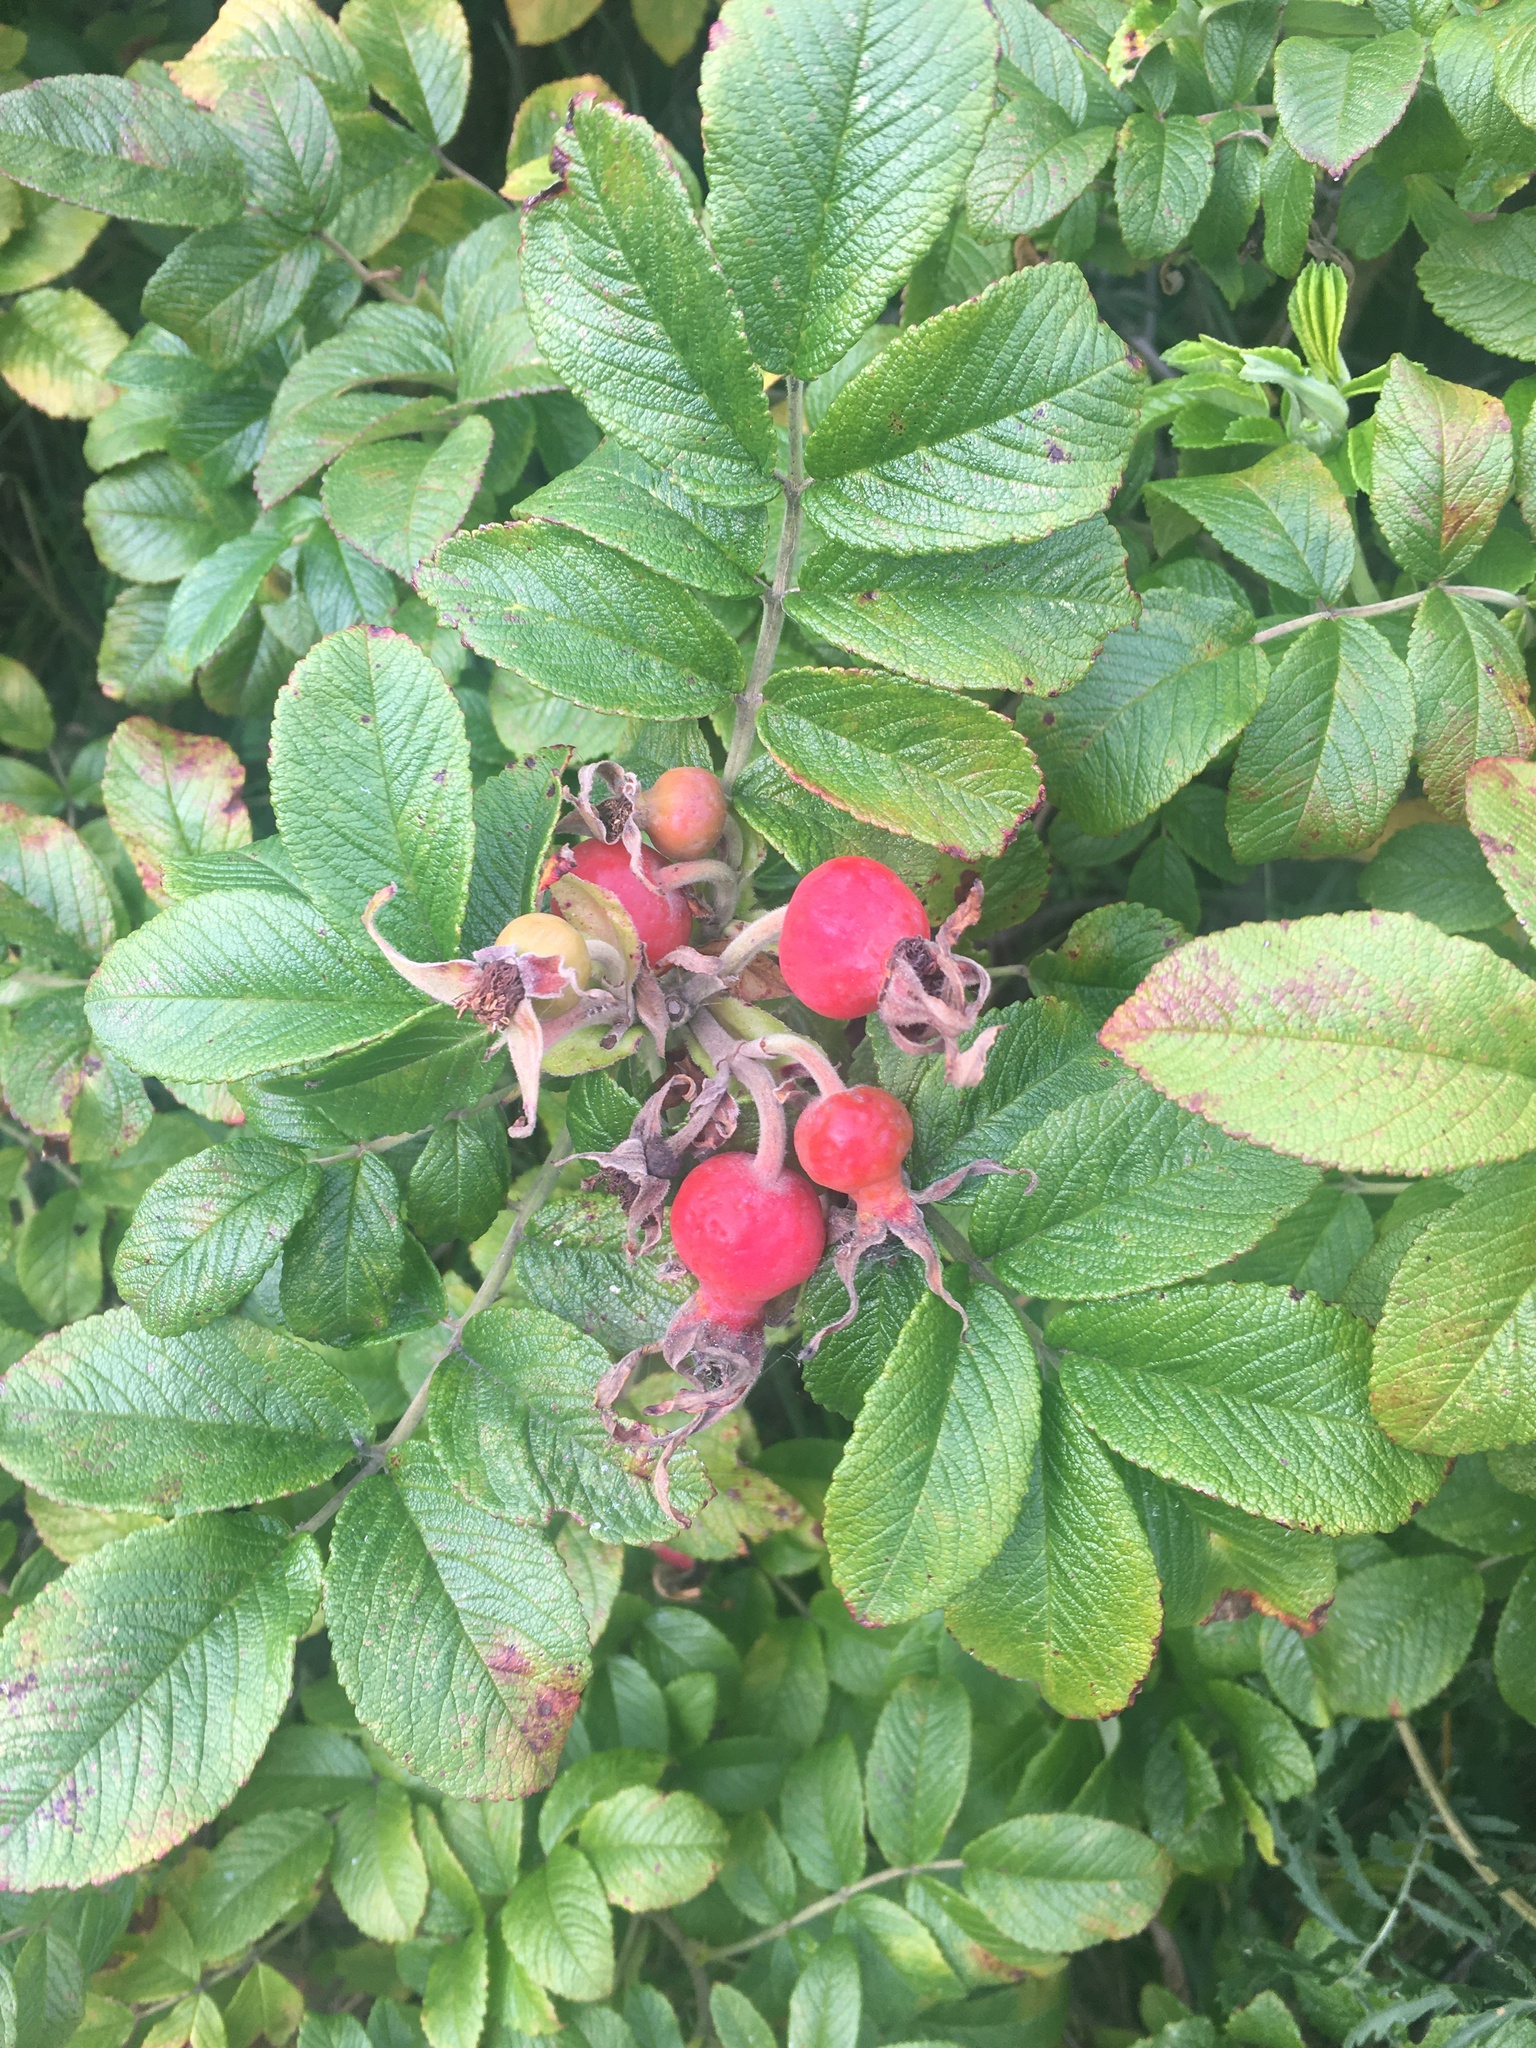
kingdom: Plantae
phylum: Tracheophyta
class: Magnoliopsida
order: Rosales
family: Rosaceae
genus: Rosa
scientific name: Rosa rugosa
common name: Japanese rose
